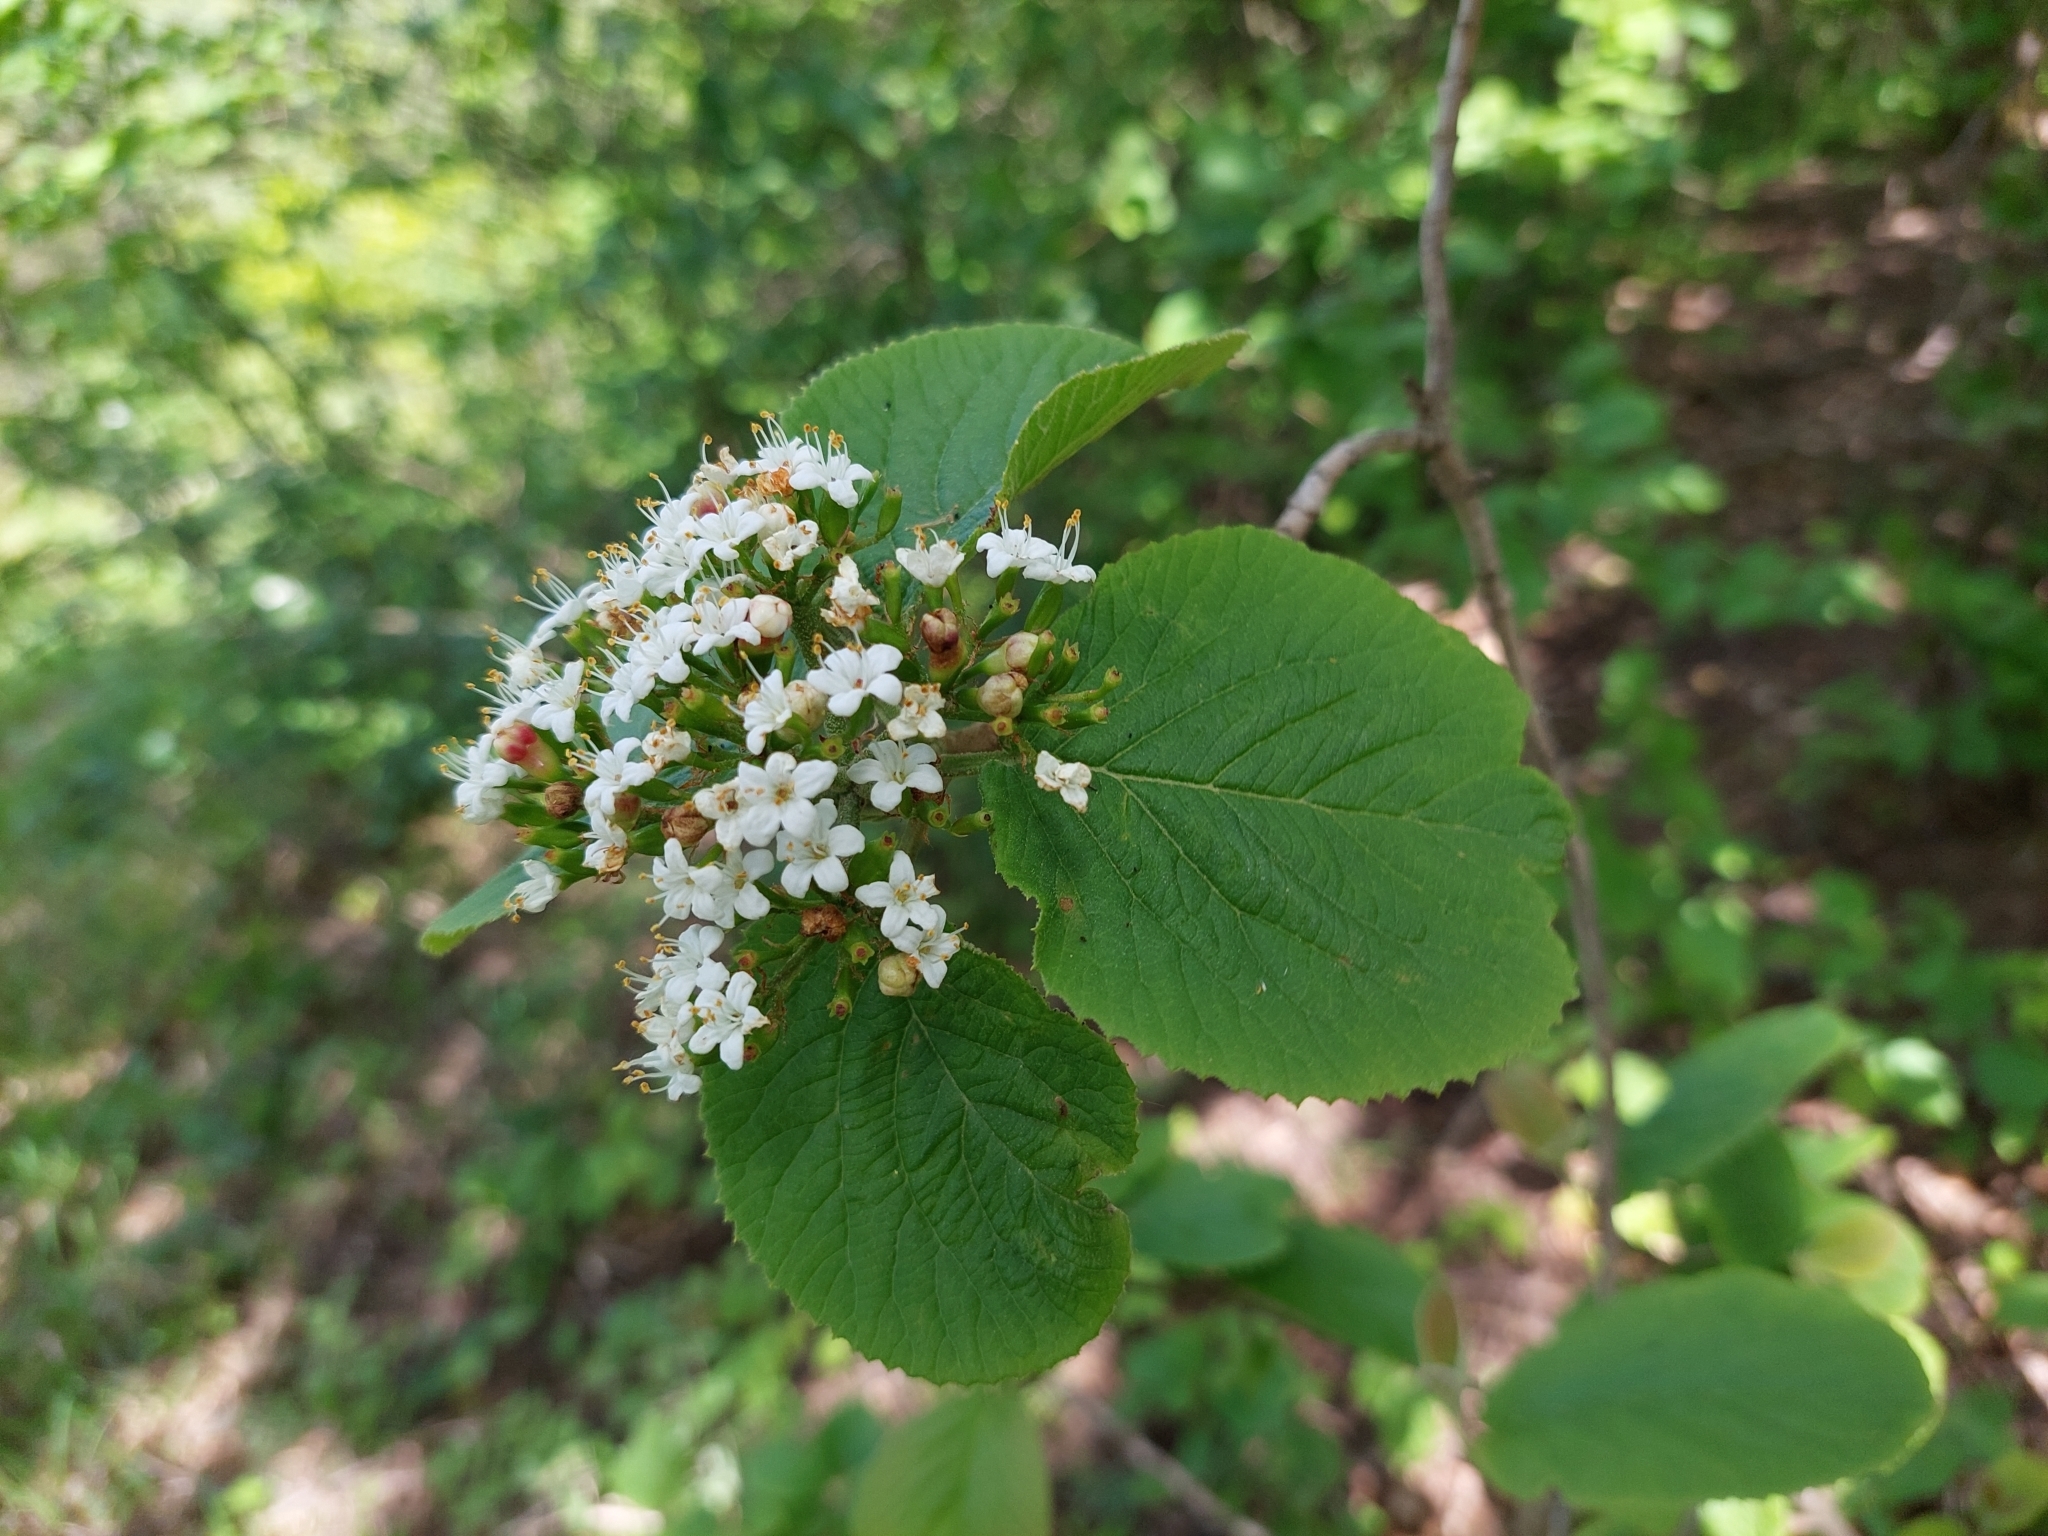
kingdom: Plantae
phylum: Tracheophyta
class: Magnoliopsida
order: Dipsacales
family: Viburnaceae
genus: Viburnum
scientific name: Viburnum lantana
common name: Wayfaring tree
